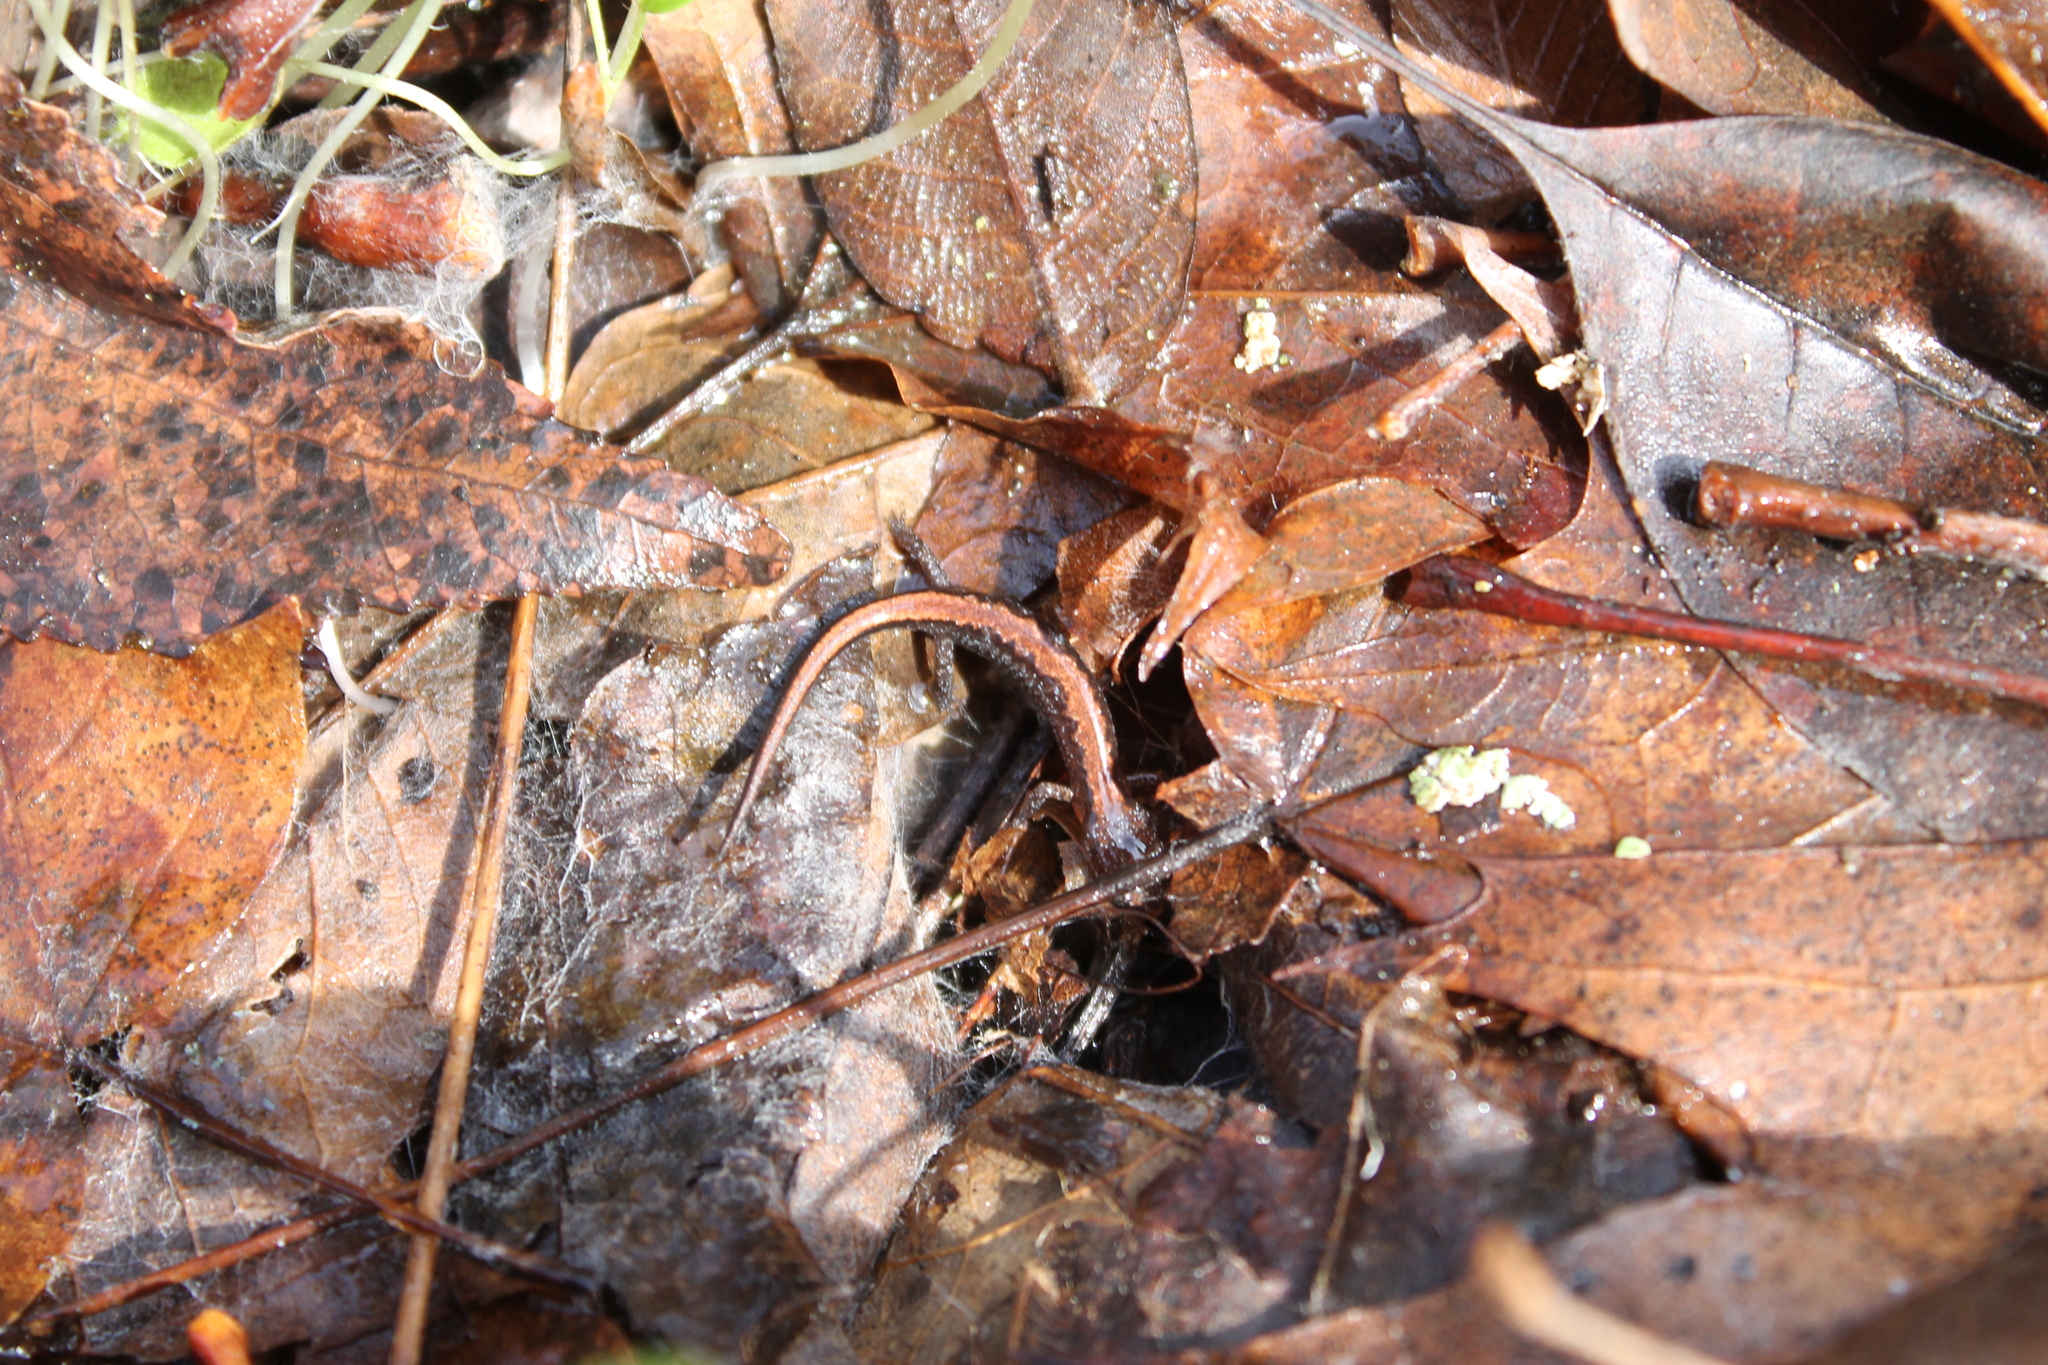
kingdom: Animalia
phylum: Chordata
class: Amphibia
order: Caudata
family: Plethodontidae
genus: Plethodon
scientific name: Plethodon dorsalis
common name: Northern zigzag salamander
